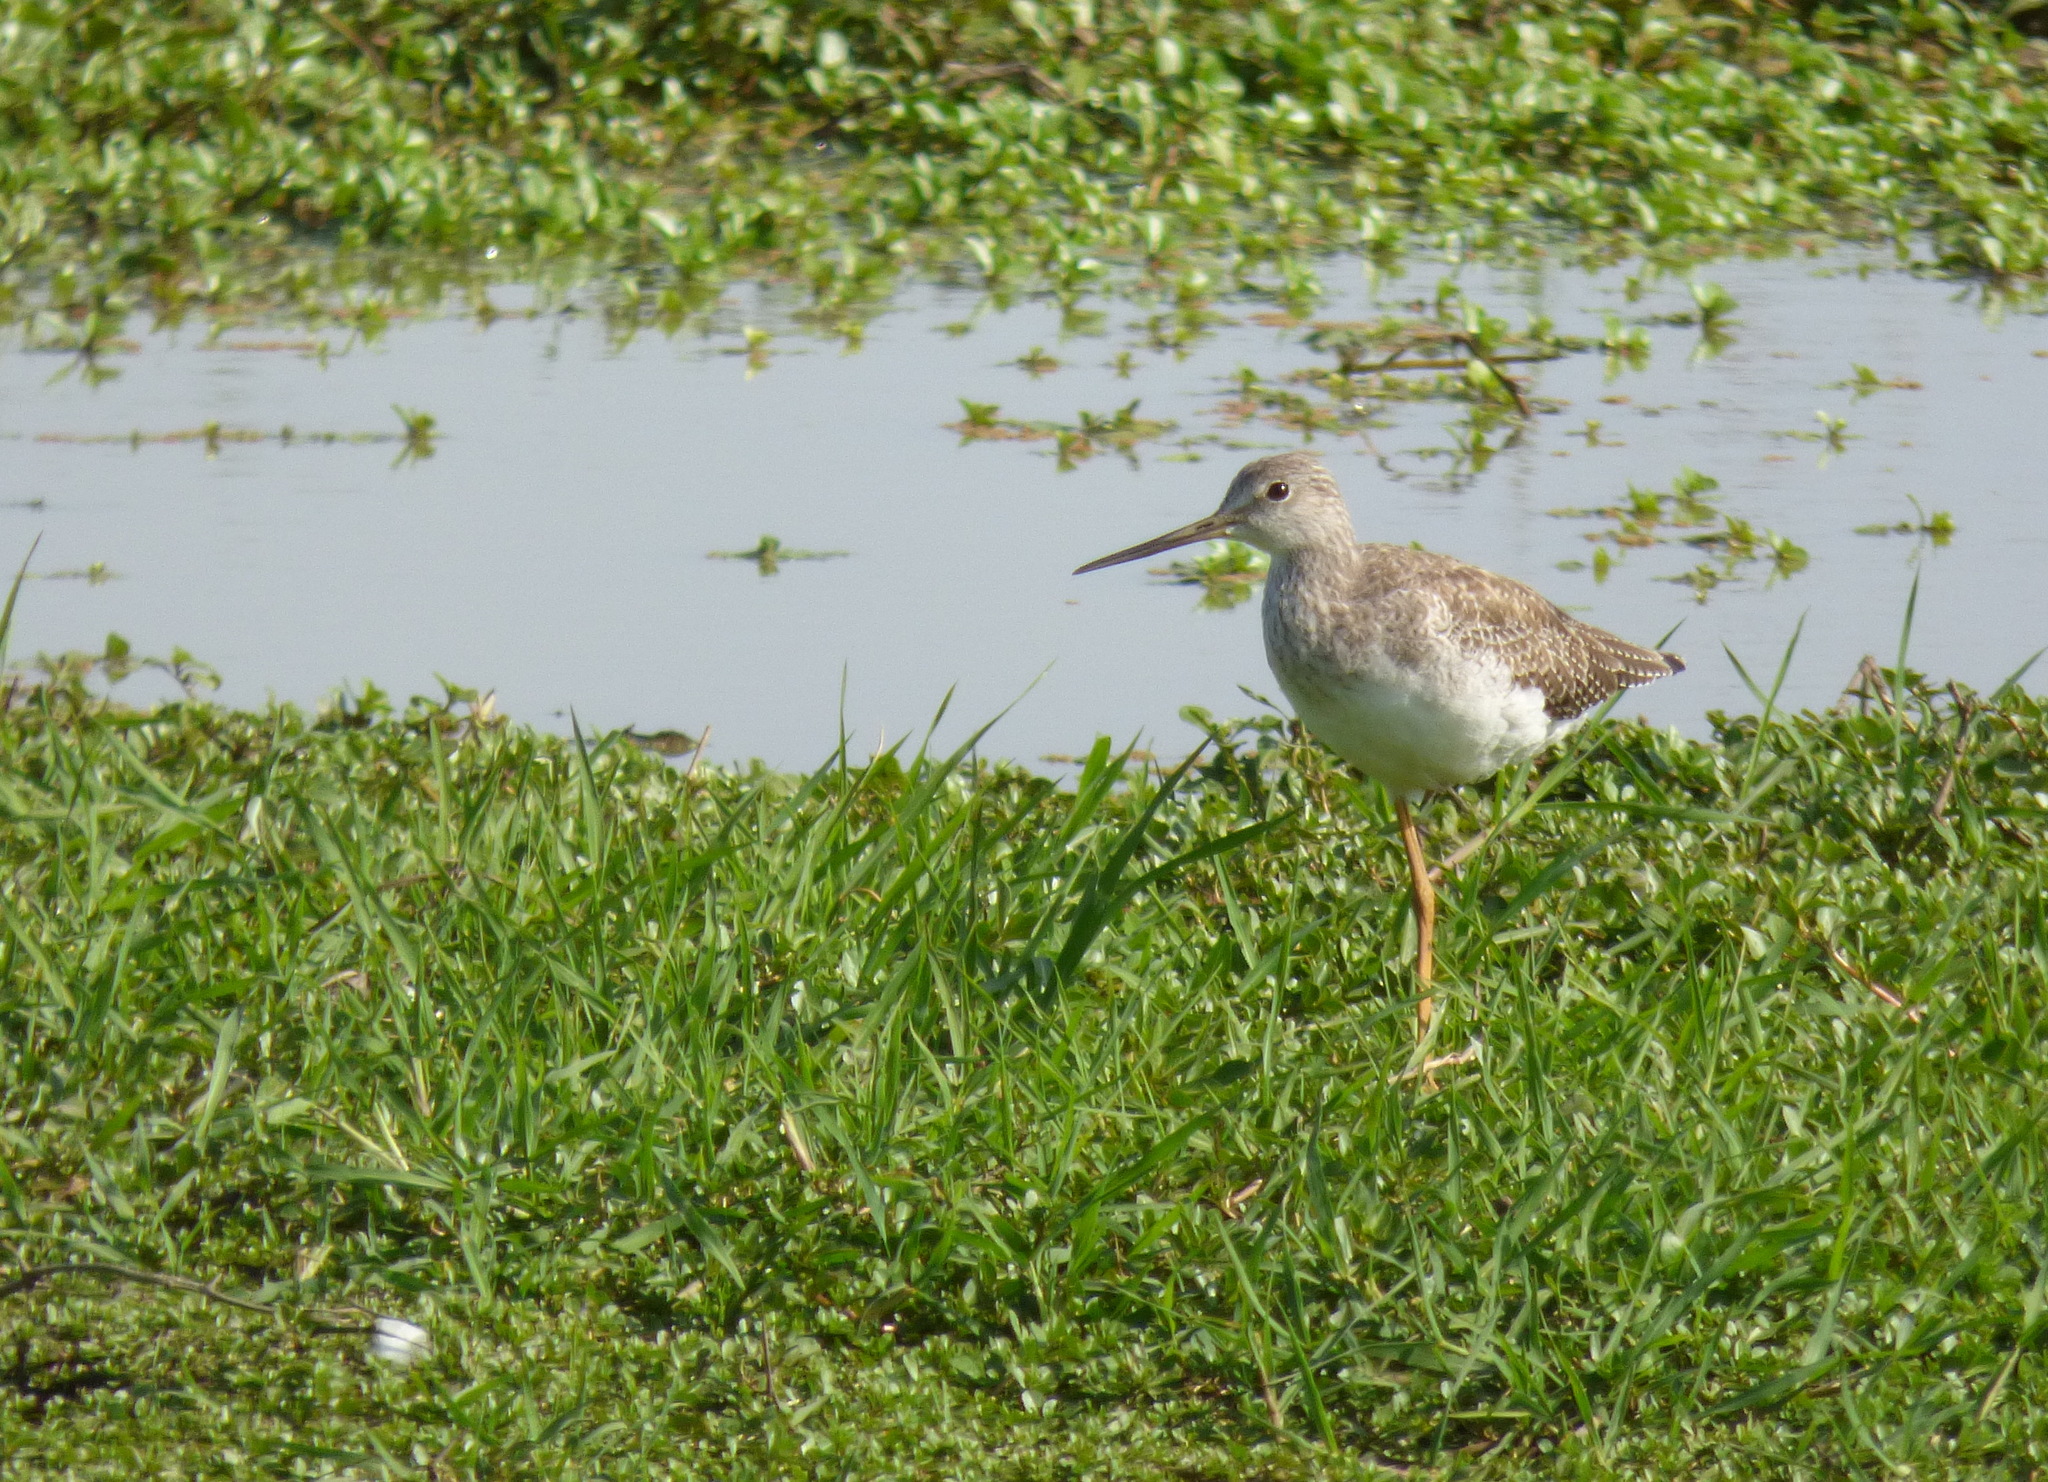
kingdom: Animalia
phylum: Chordata
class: Aves
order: Charadriiformes
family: Scolopacidae
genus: Tringa
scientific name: Tringa melanoleuca
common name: Greater yellowlegs
